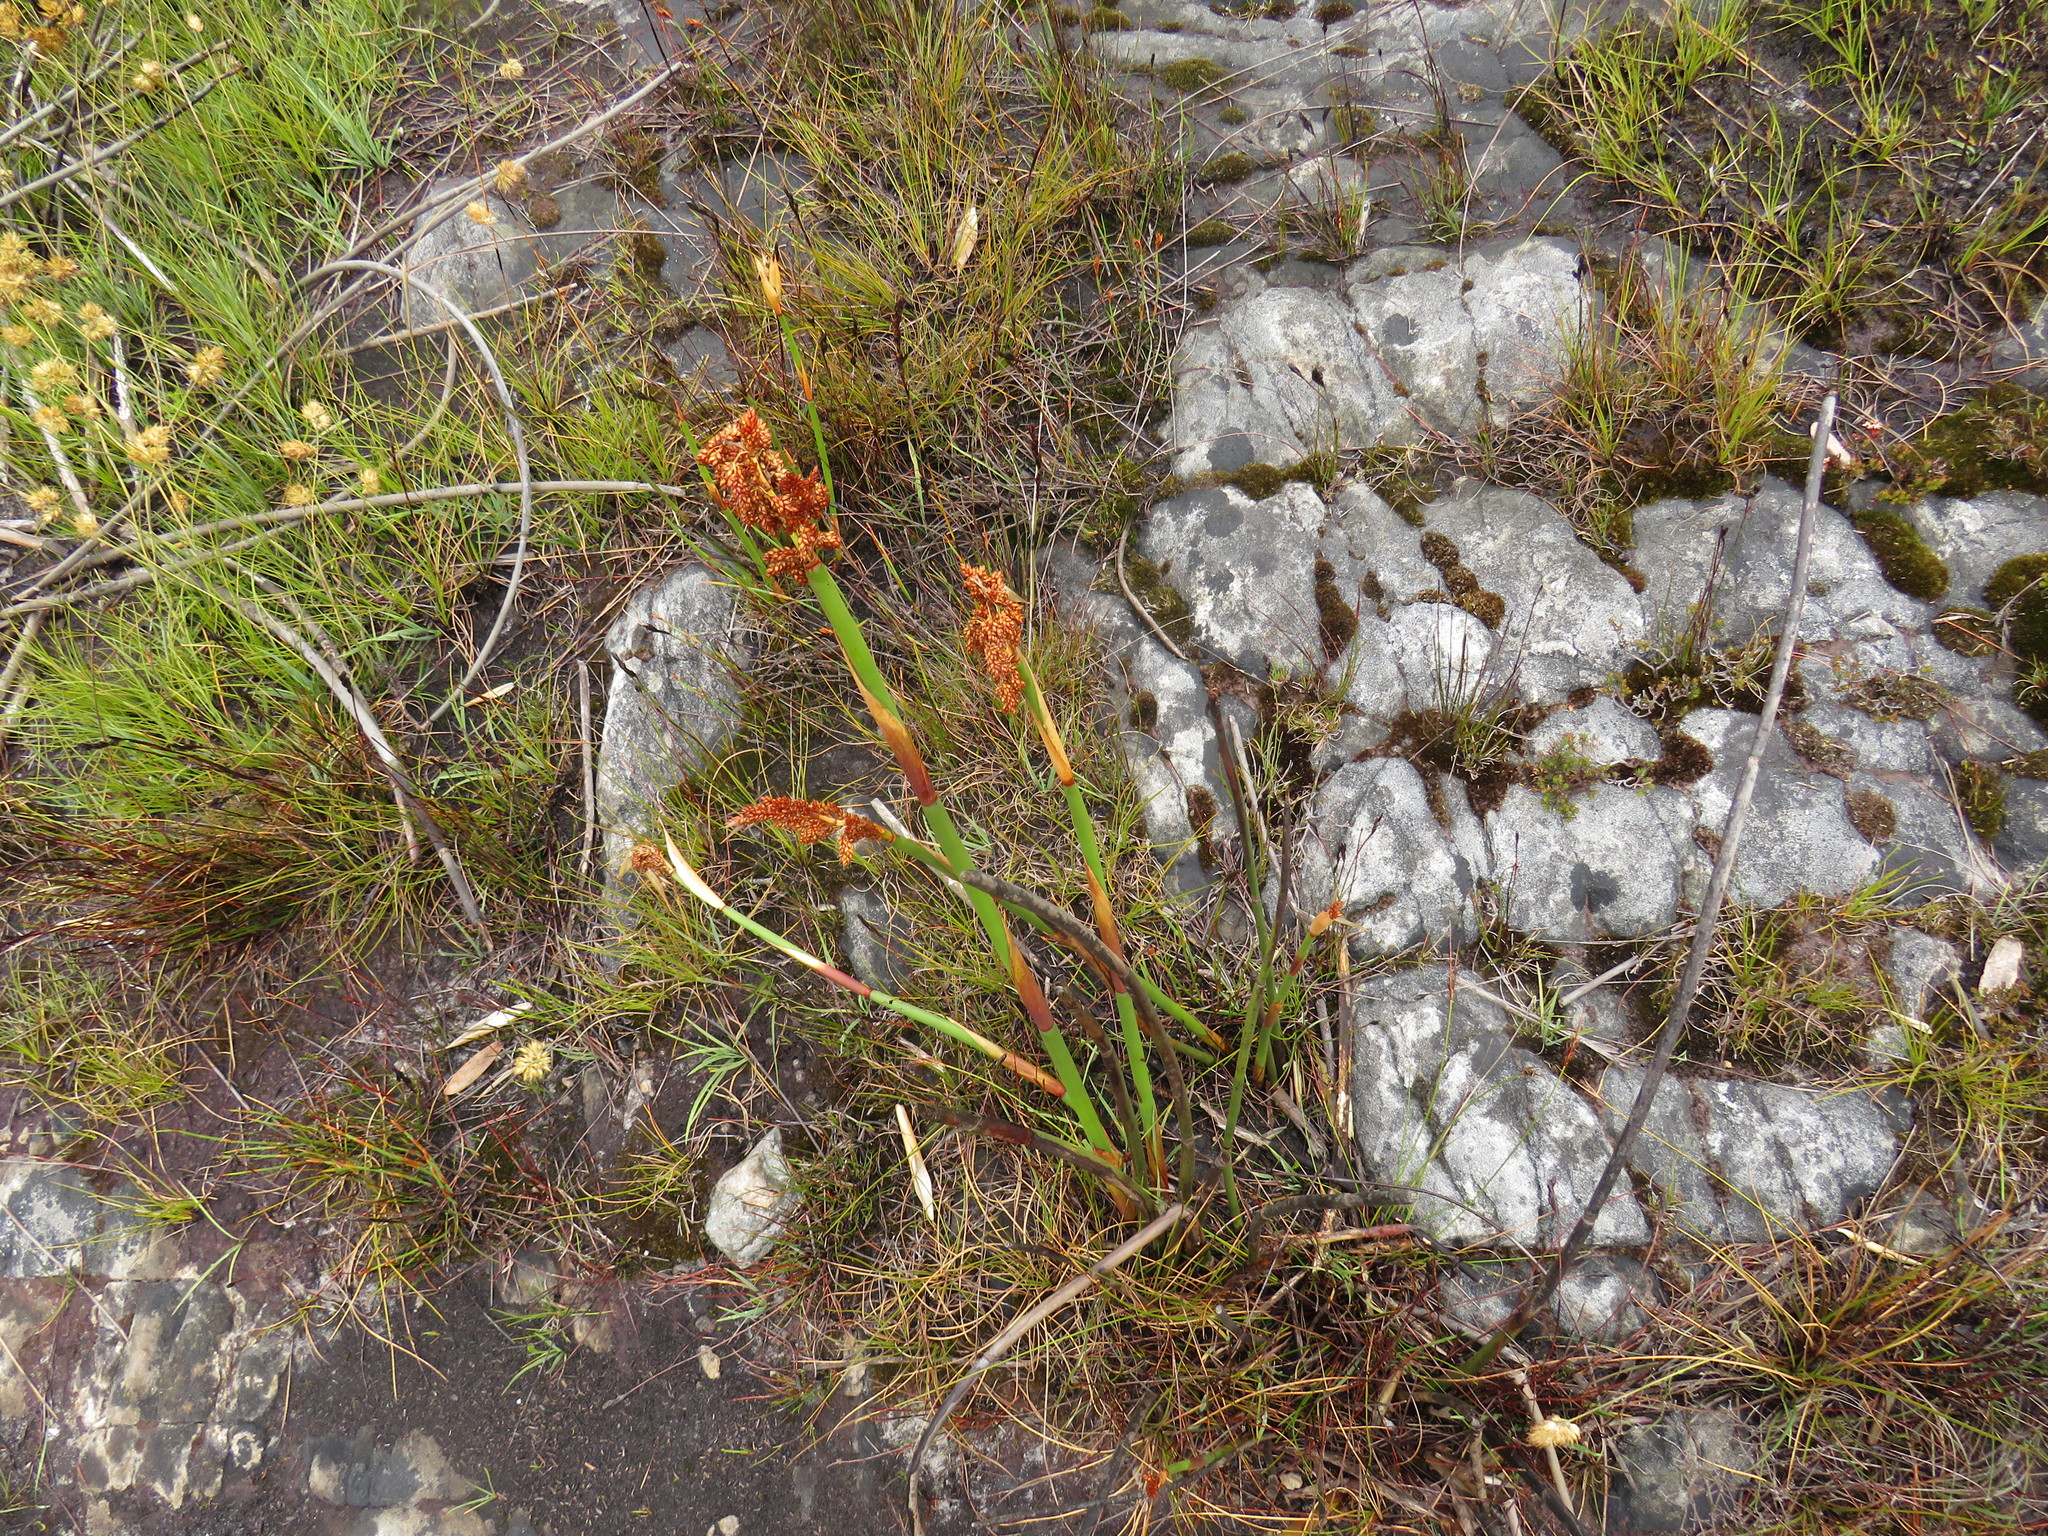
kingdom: Plantae
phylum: Tracheophyta
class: Liliopsida
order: Poales
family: Restionaceae
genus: Elegia
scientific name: Elegia mucronata
